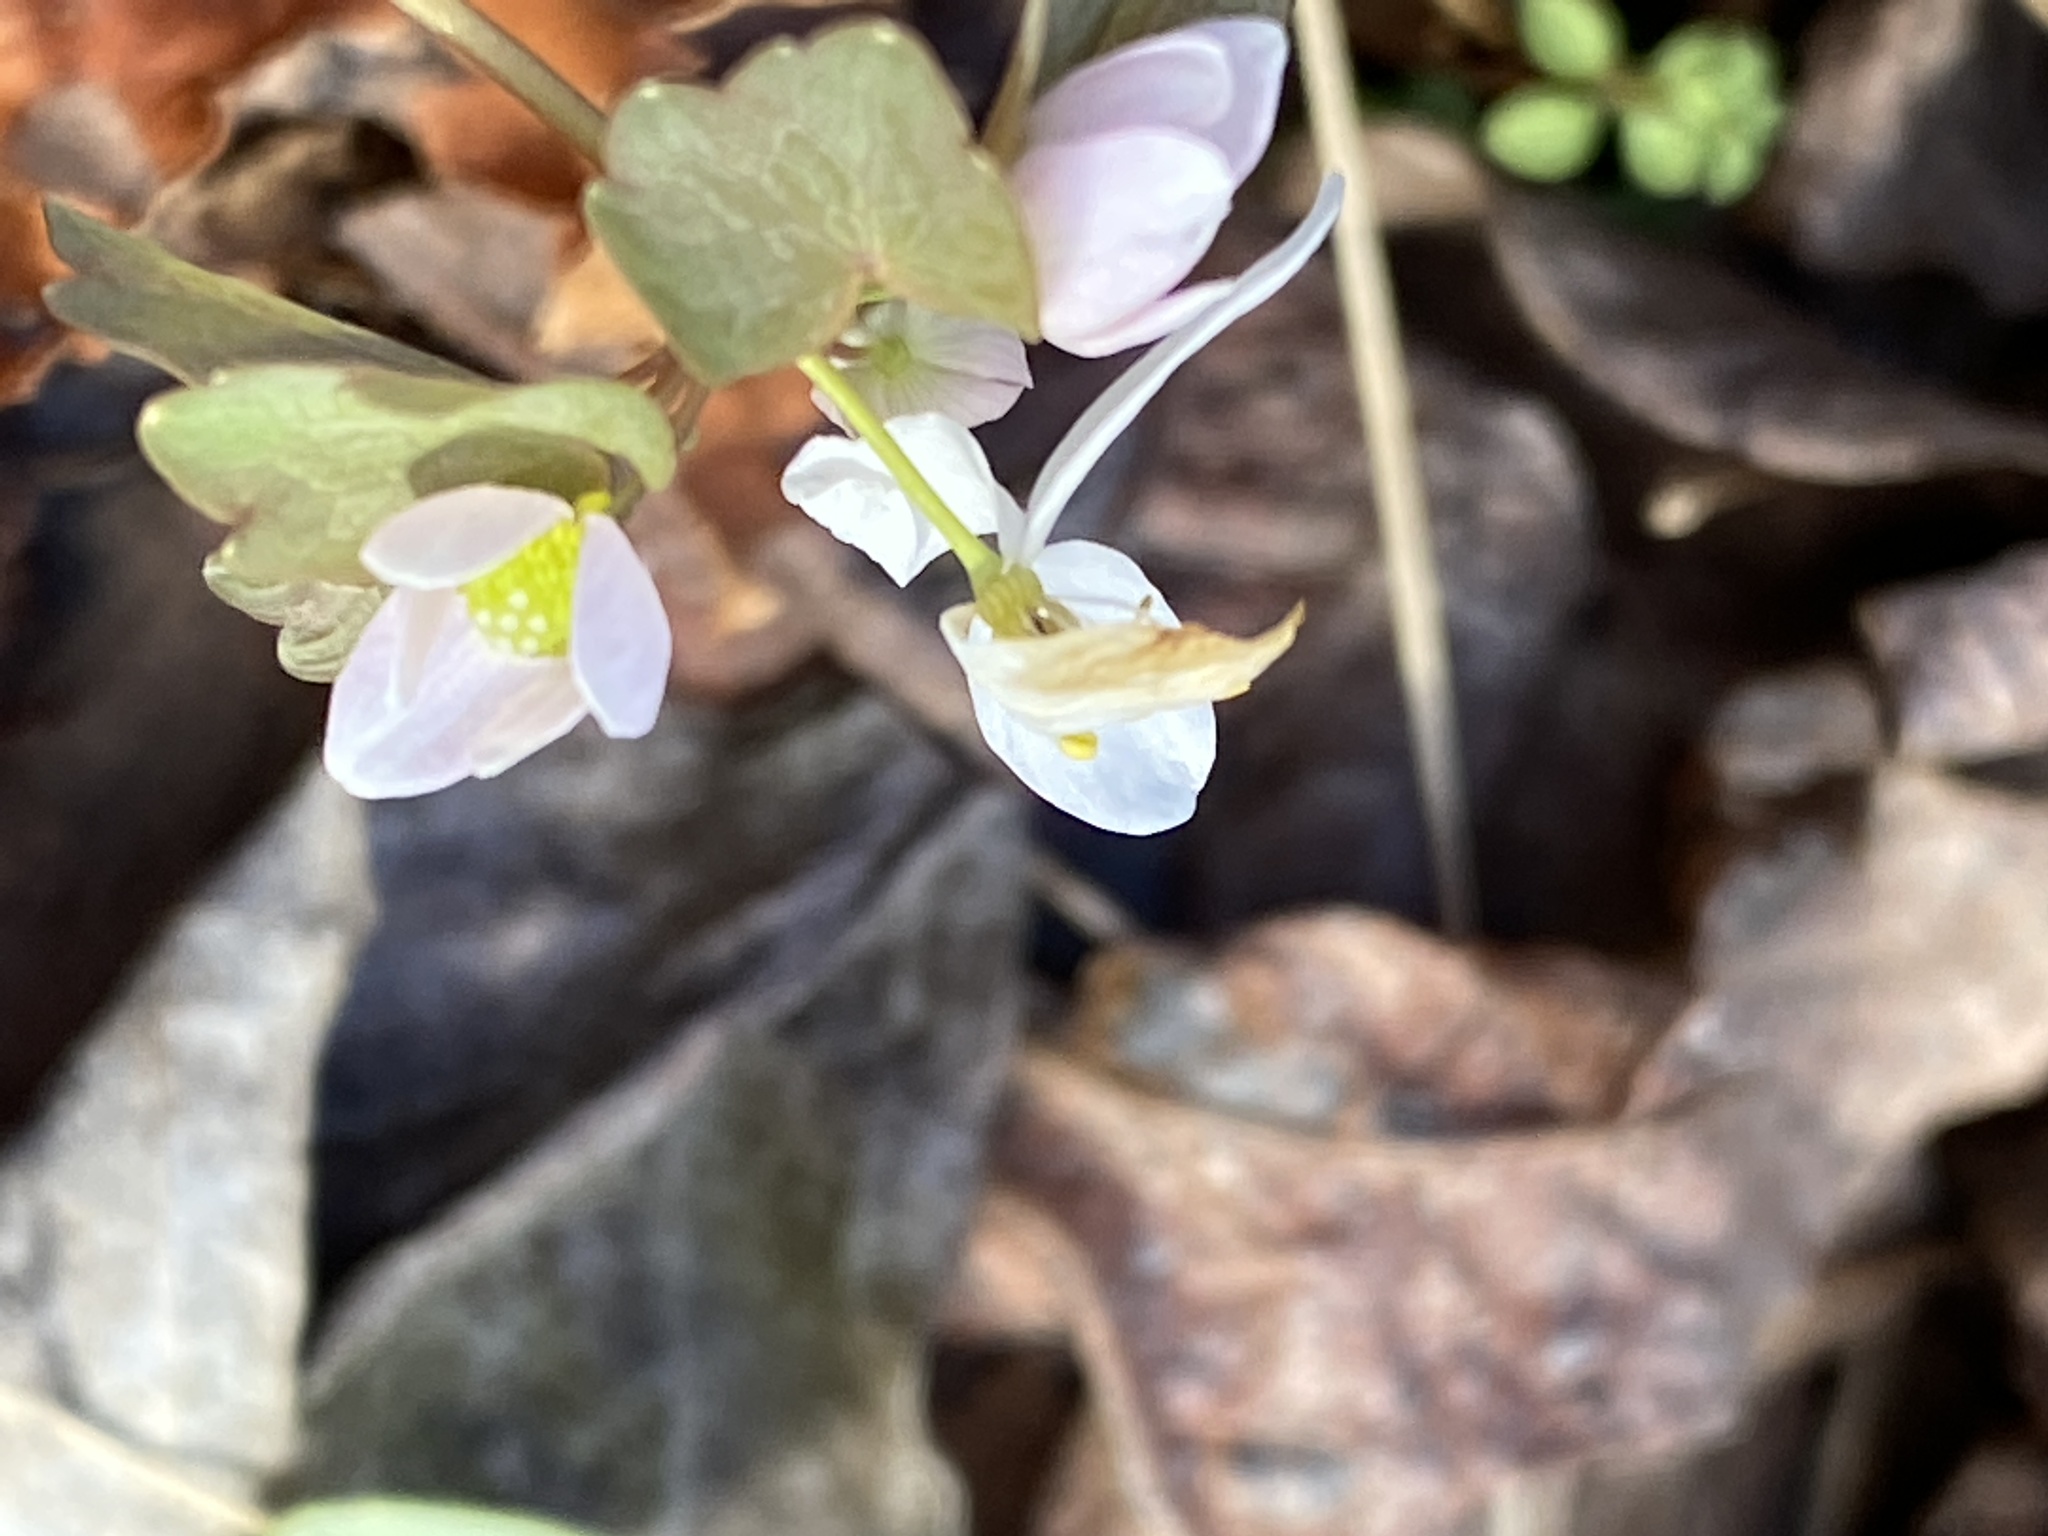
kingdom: Plantae
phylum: Tracheophyta
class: Magnoliopsida
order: Ranunculales
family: Ranunculaceae
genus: Thalictrum
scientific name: Thalictrum thalictroides
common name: Rue-anemone
